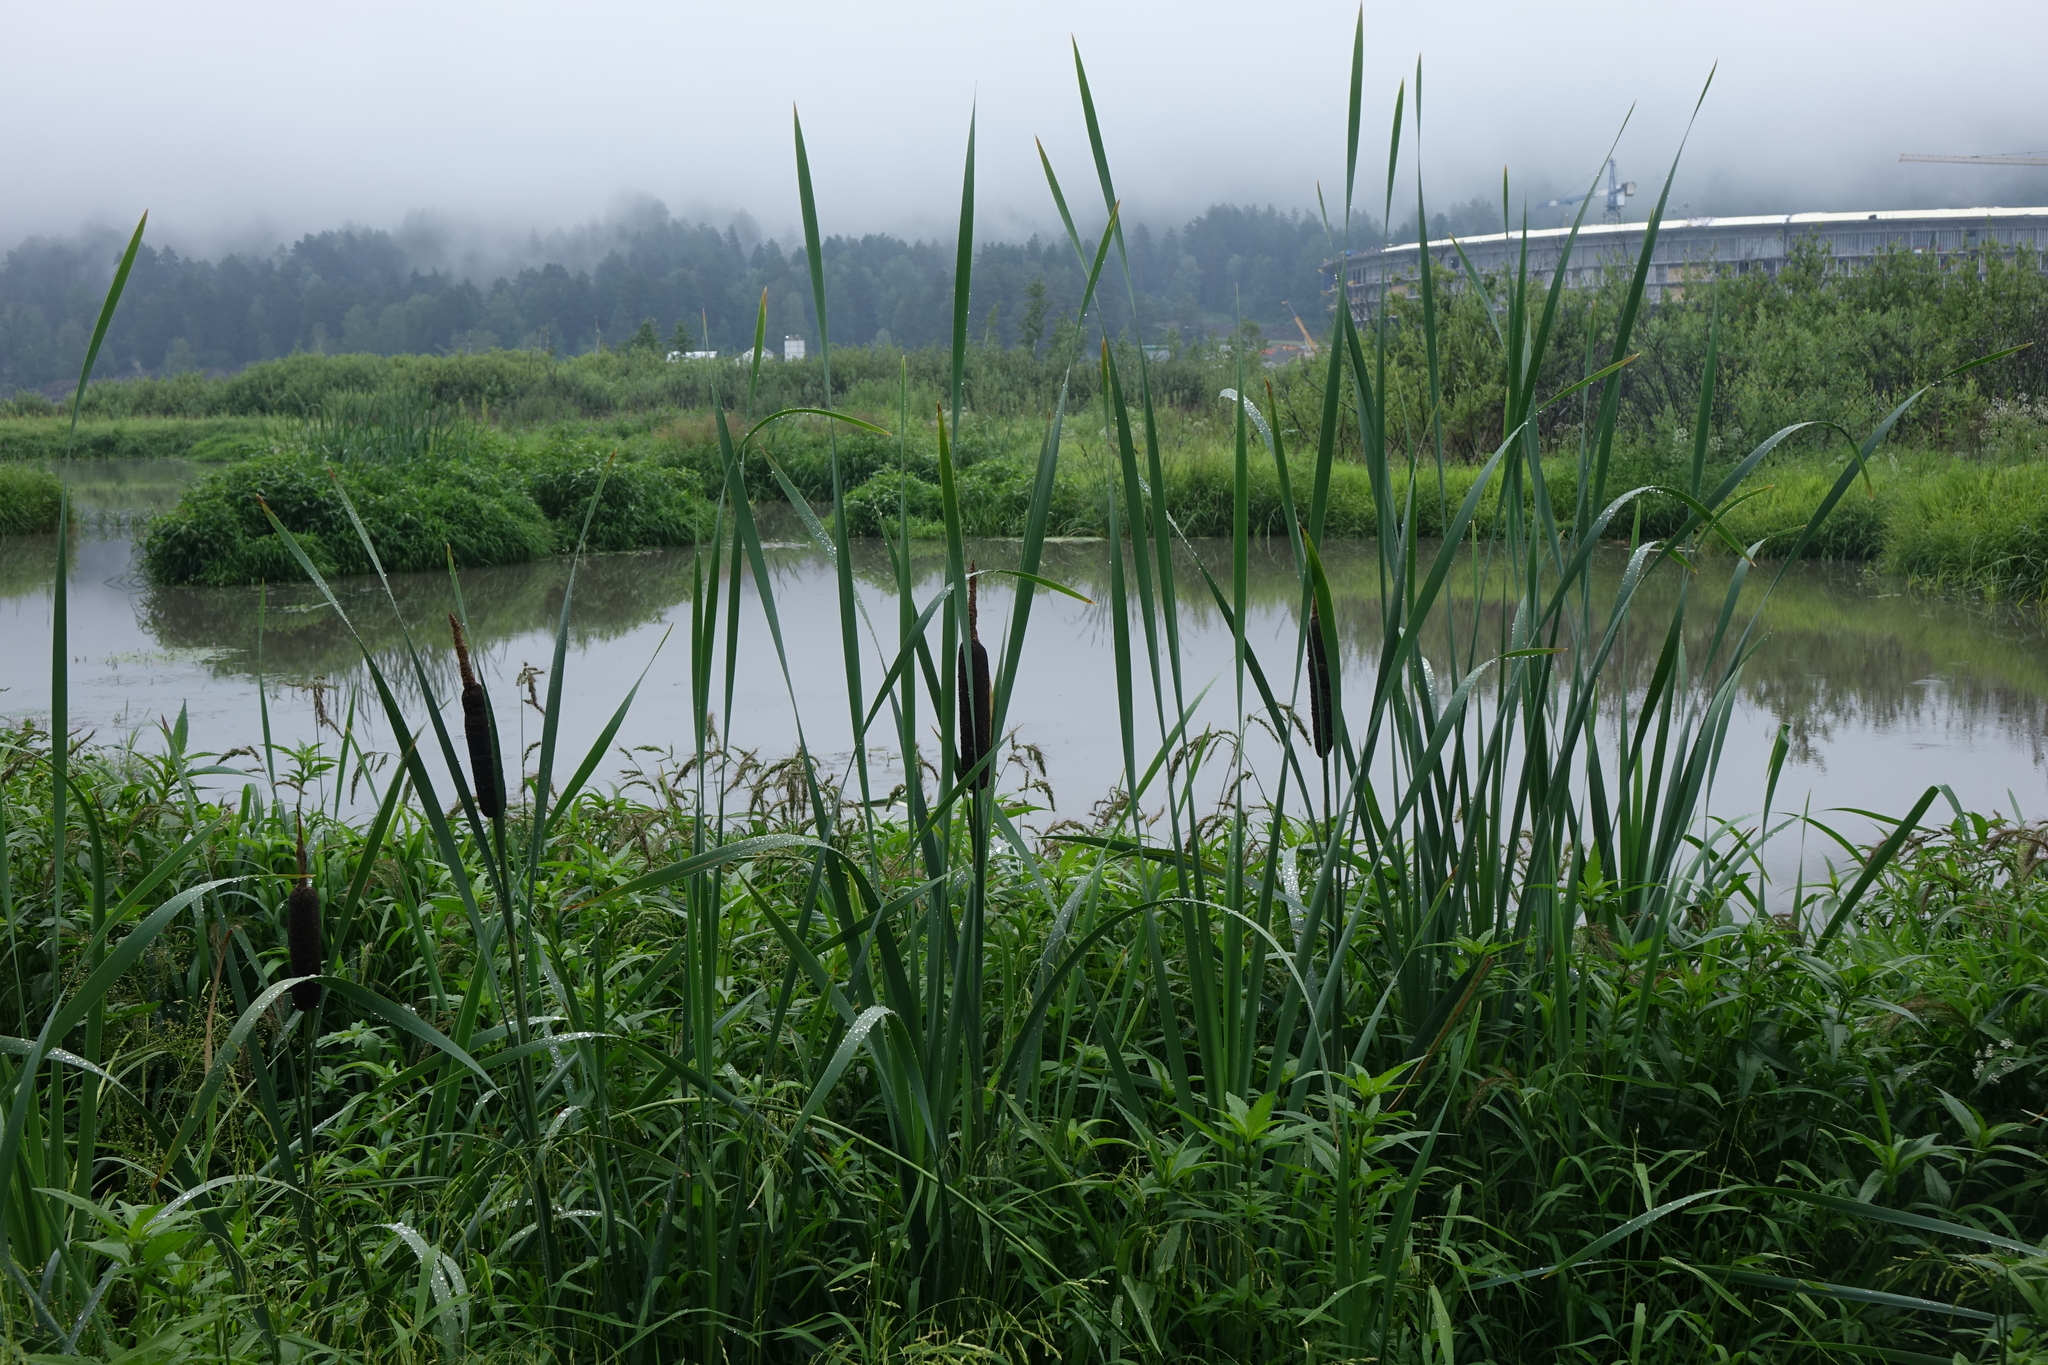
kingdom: Plantae
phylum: Tracheophyta
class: Liliopsida
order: Poales
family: Typhaceae
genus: Typha
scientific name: Typha latifolia
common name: Broadleaf cattail
